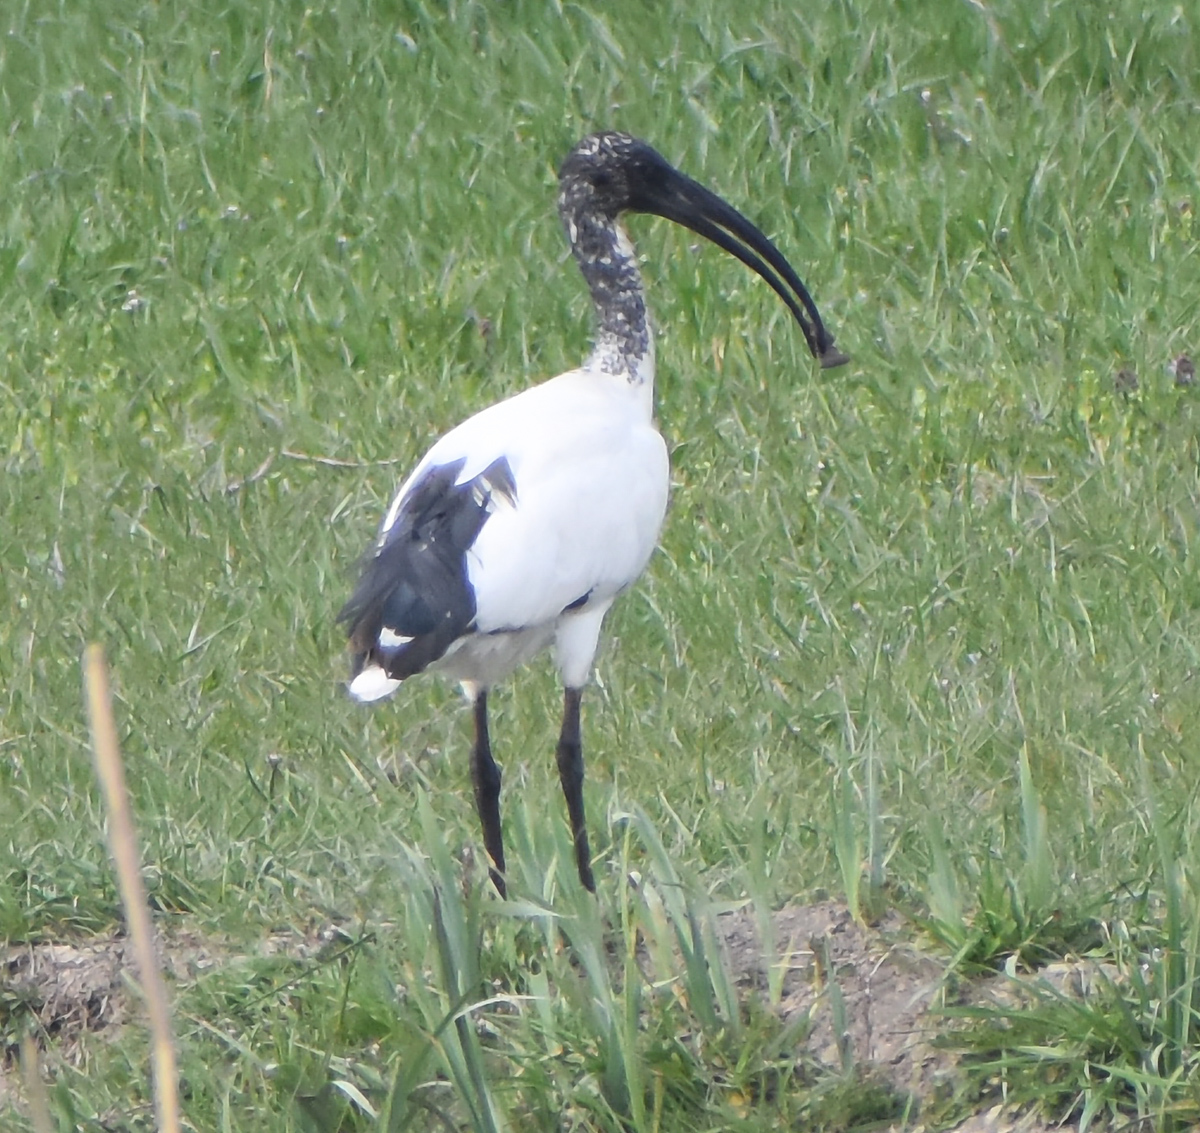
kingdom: Animalia
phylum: Chordata
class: Aves
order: Pelecaniformes
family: Threskiornithidae
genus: Threskiornis
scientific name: Threskiornis aethiopicus
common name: Sacred ibis
